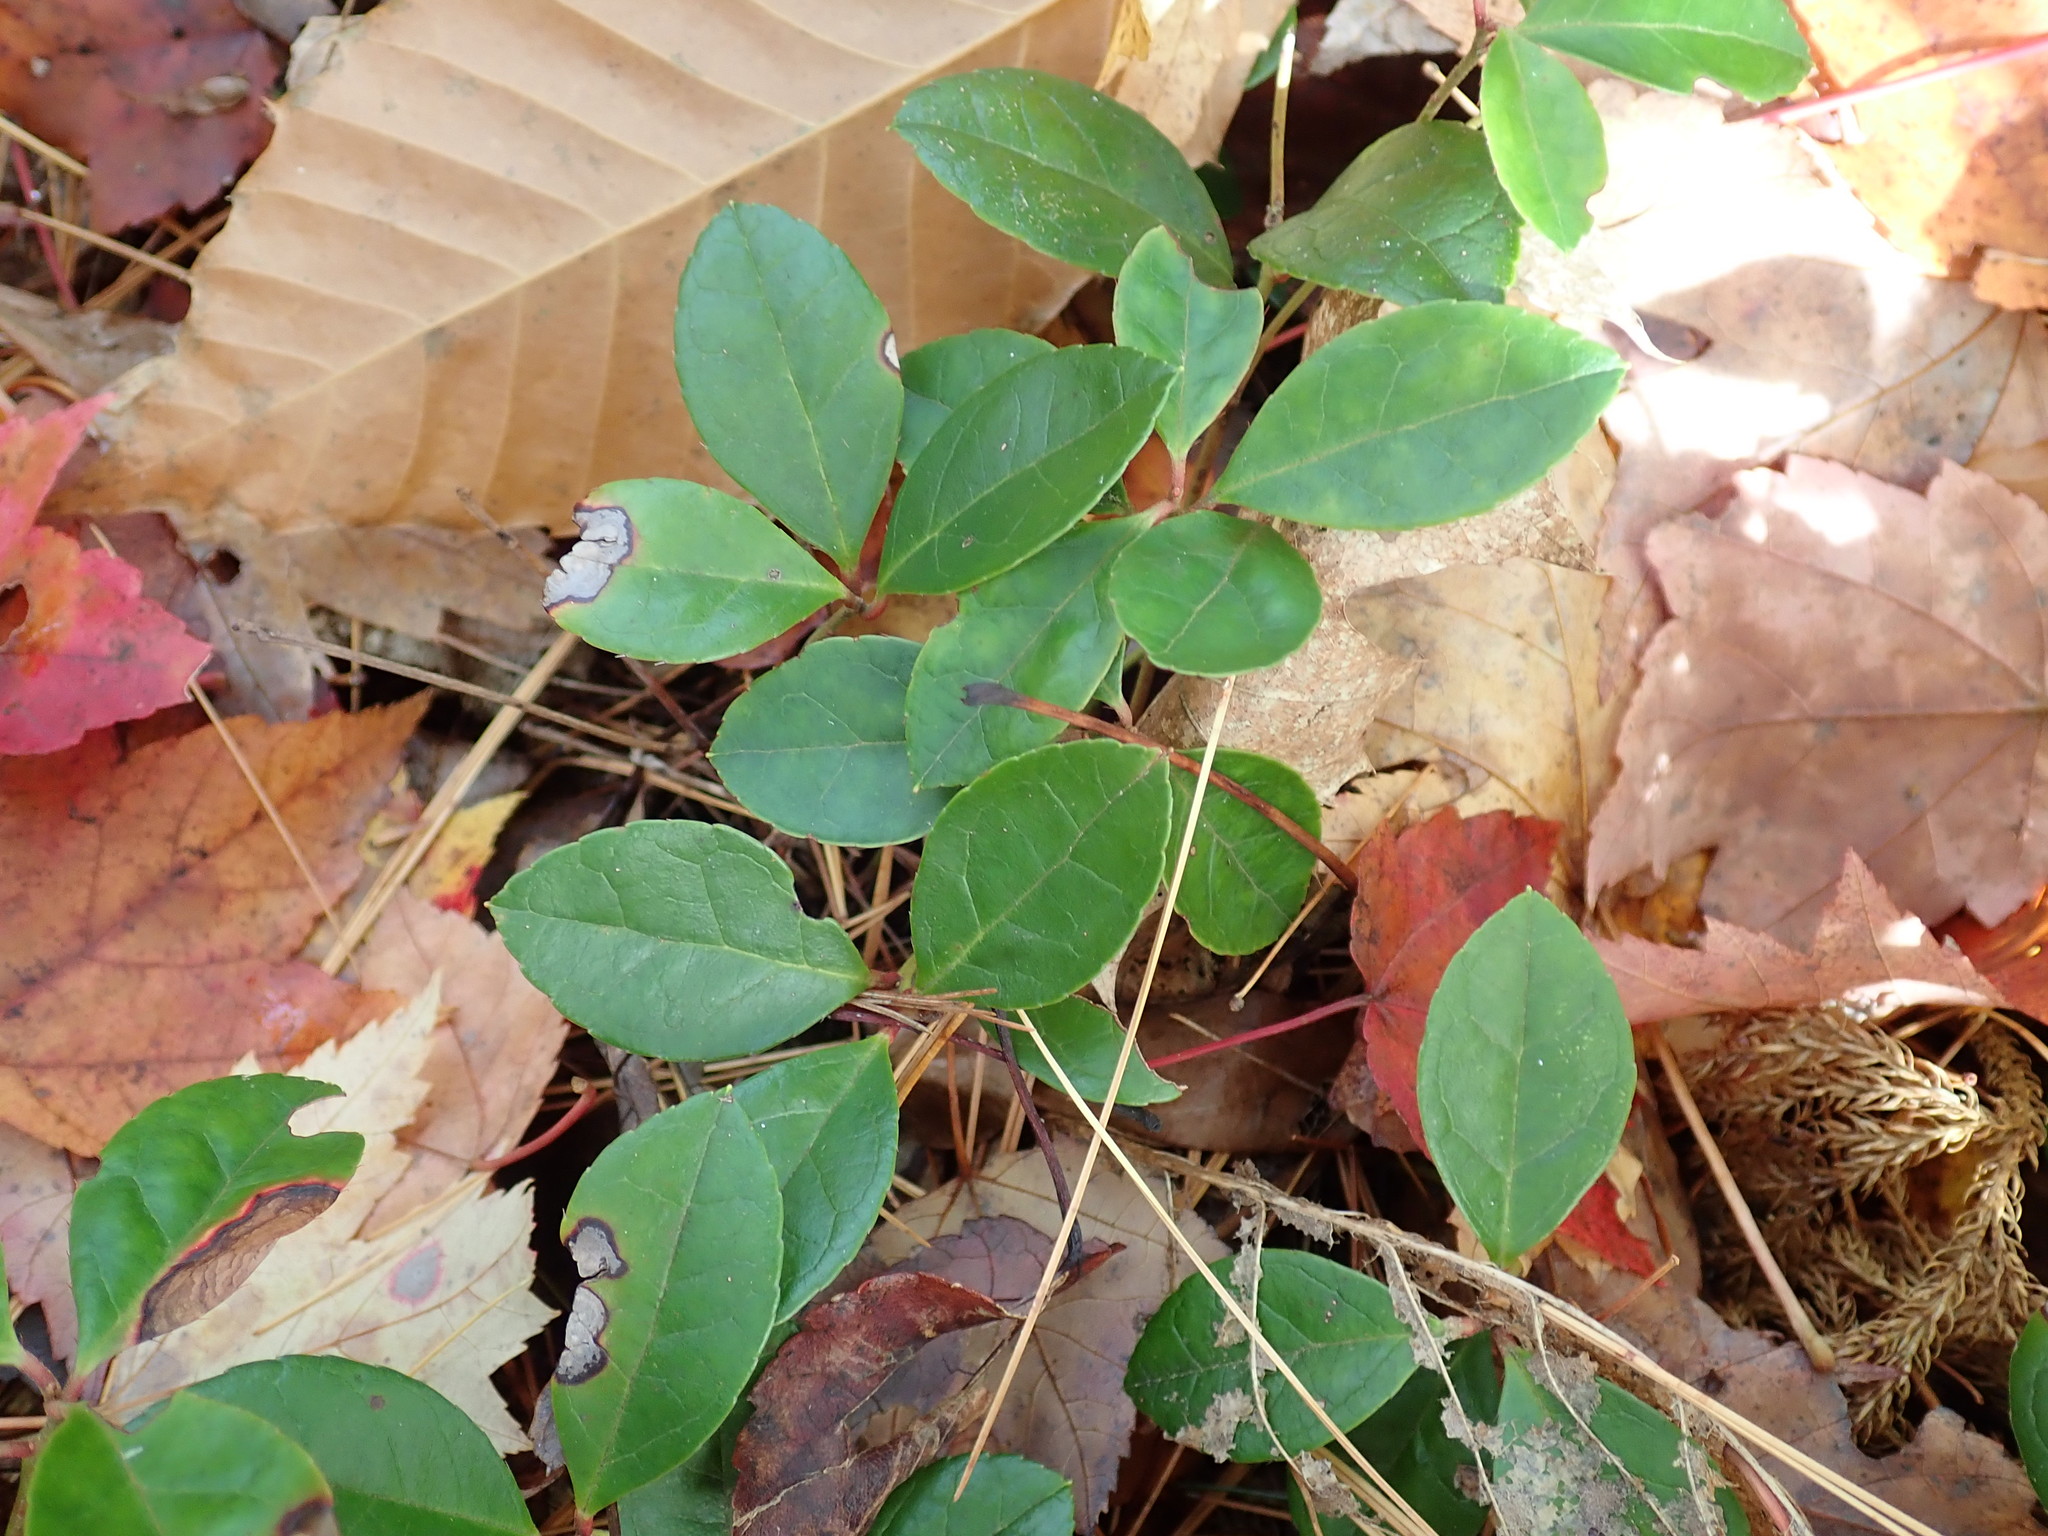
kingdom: Plantae
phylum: Tracheophyta
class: Magnoliopsida
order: Ericales
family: Ericaceae
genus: Gaultheria
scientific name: Gaultheria procumbens
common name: Checkerberry
